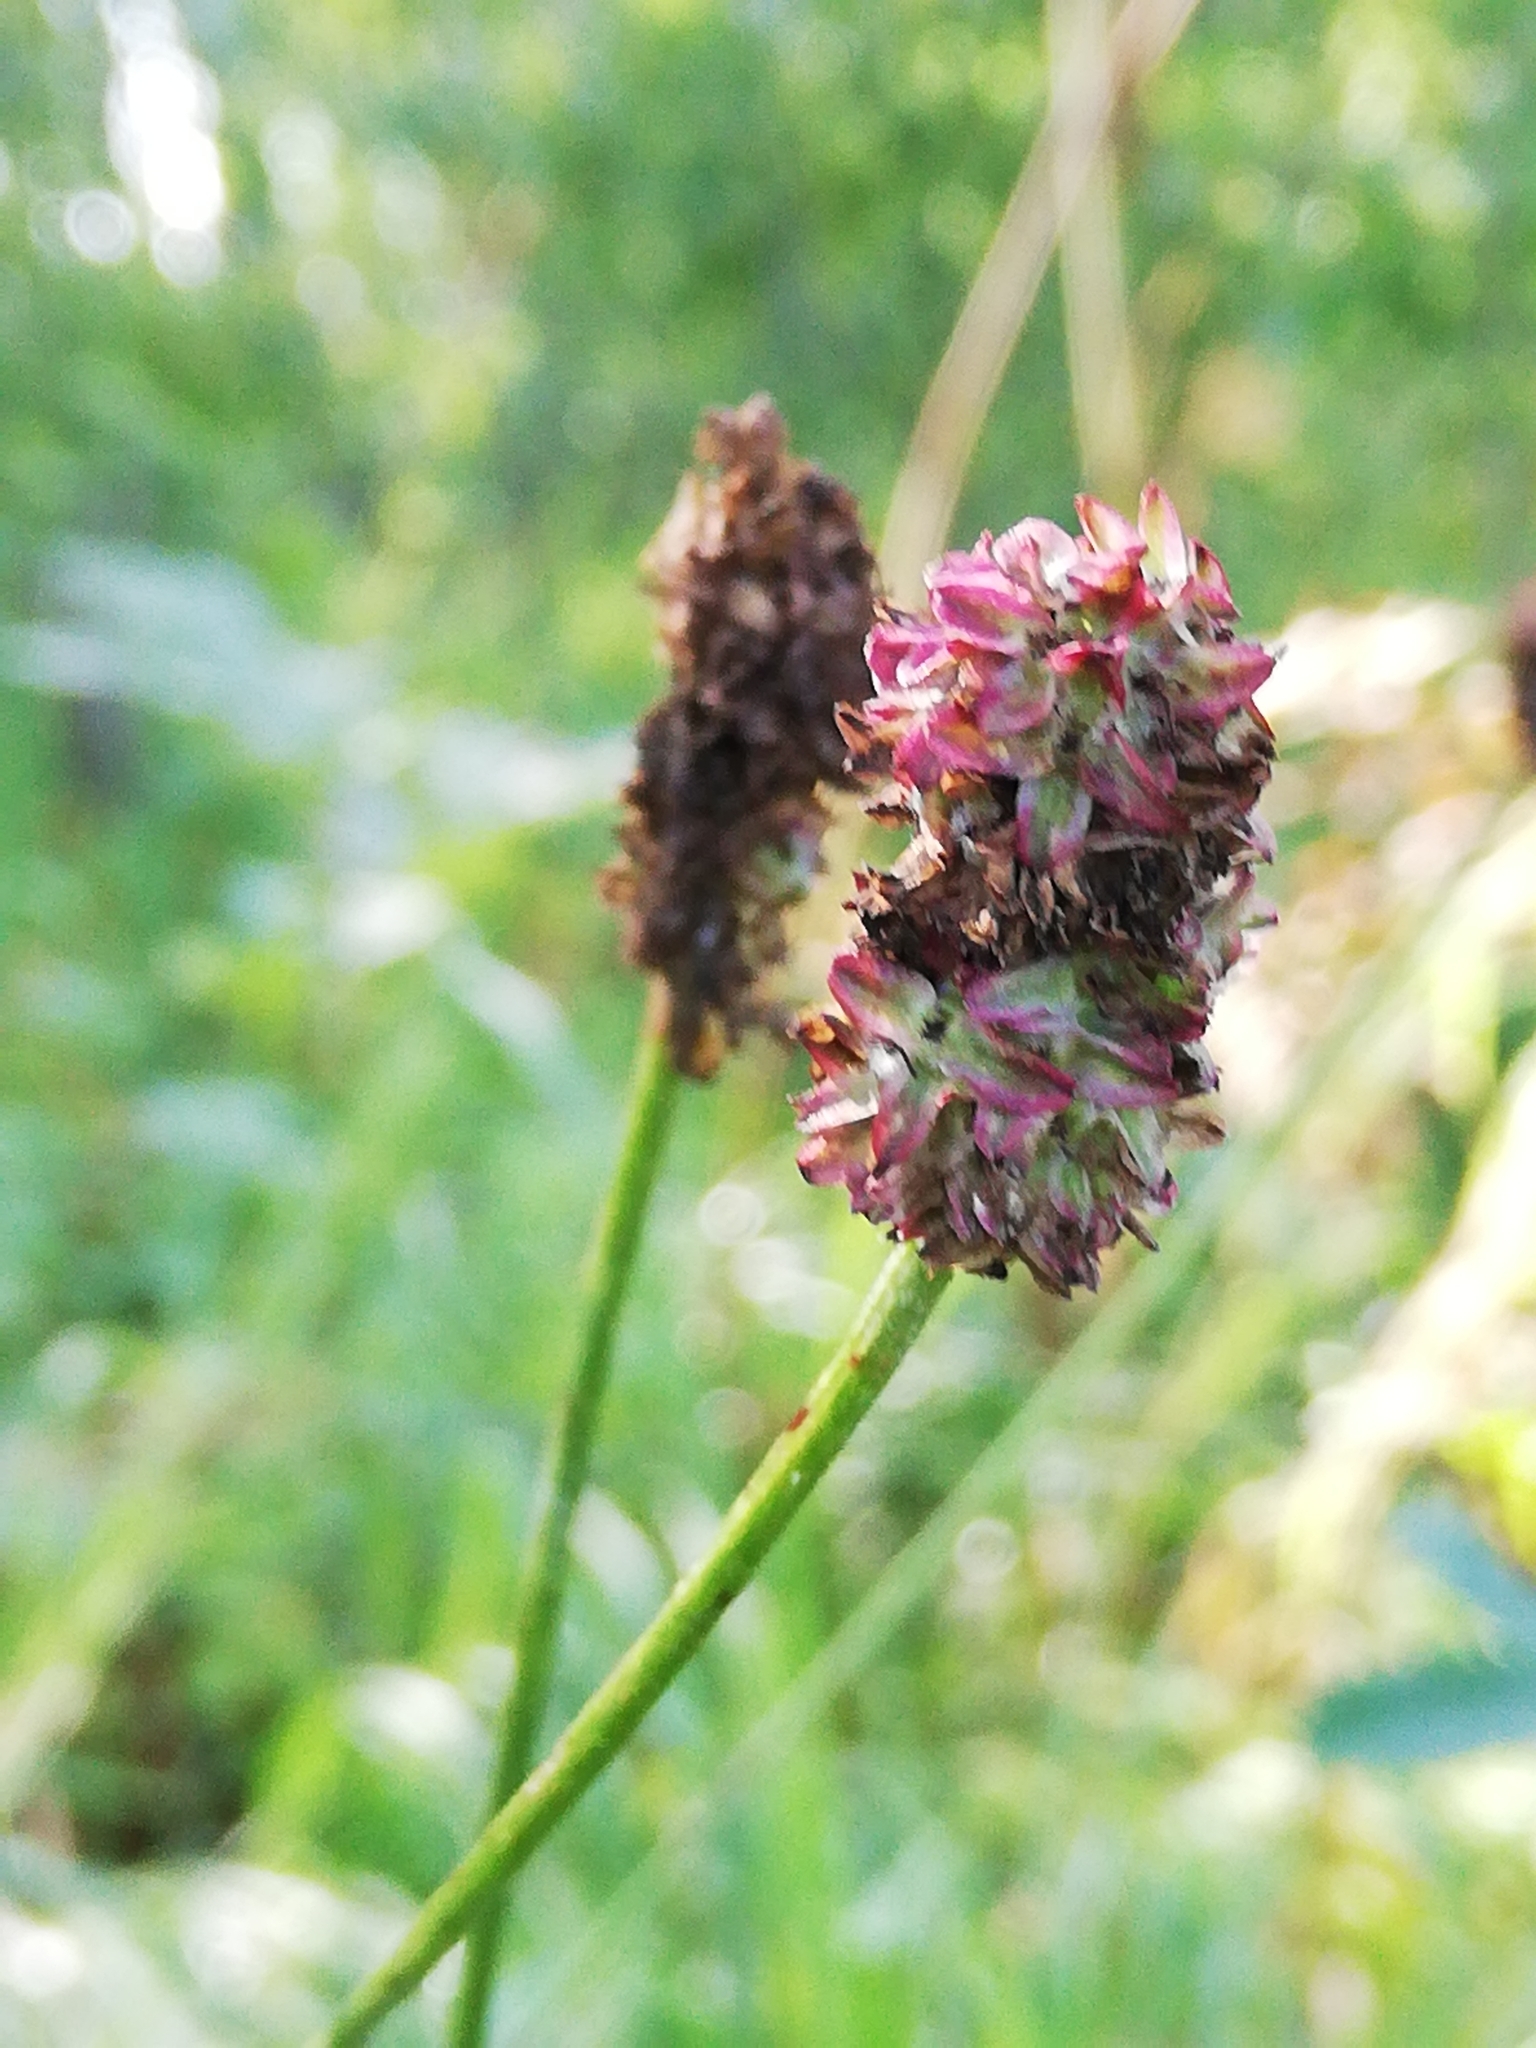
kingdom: Plantae
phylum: Tracheophyta
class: Magnoliopsida
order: Rosales
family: Rosaceae
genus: Sanguisorba
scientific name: Sanguisorba officinalis
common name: Great burnet
